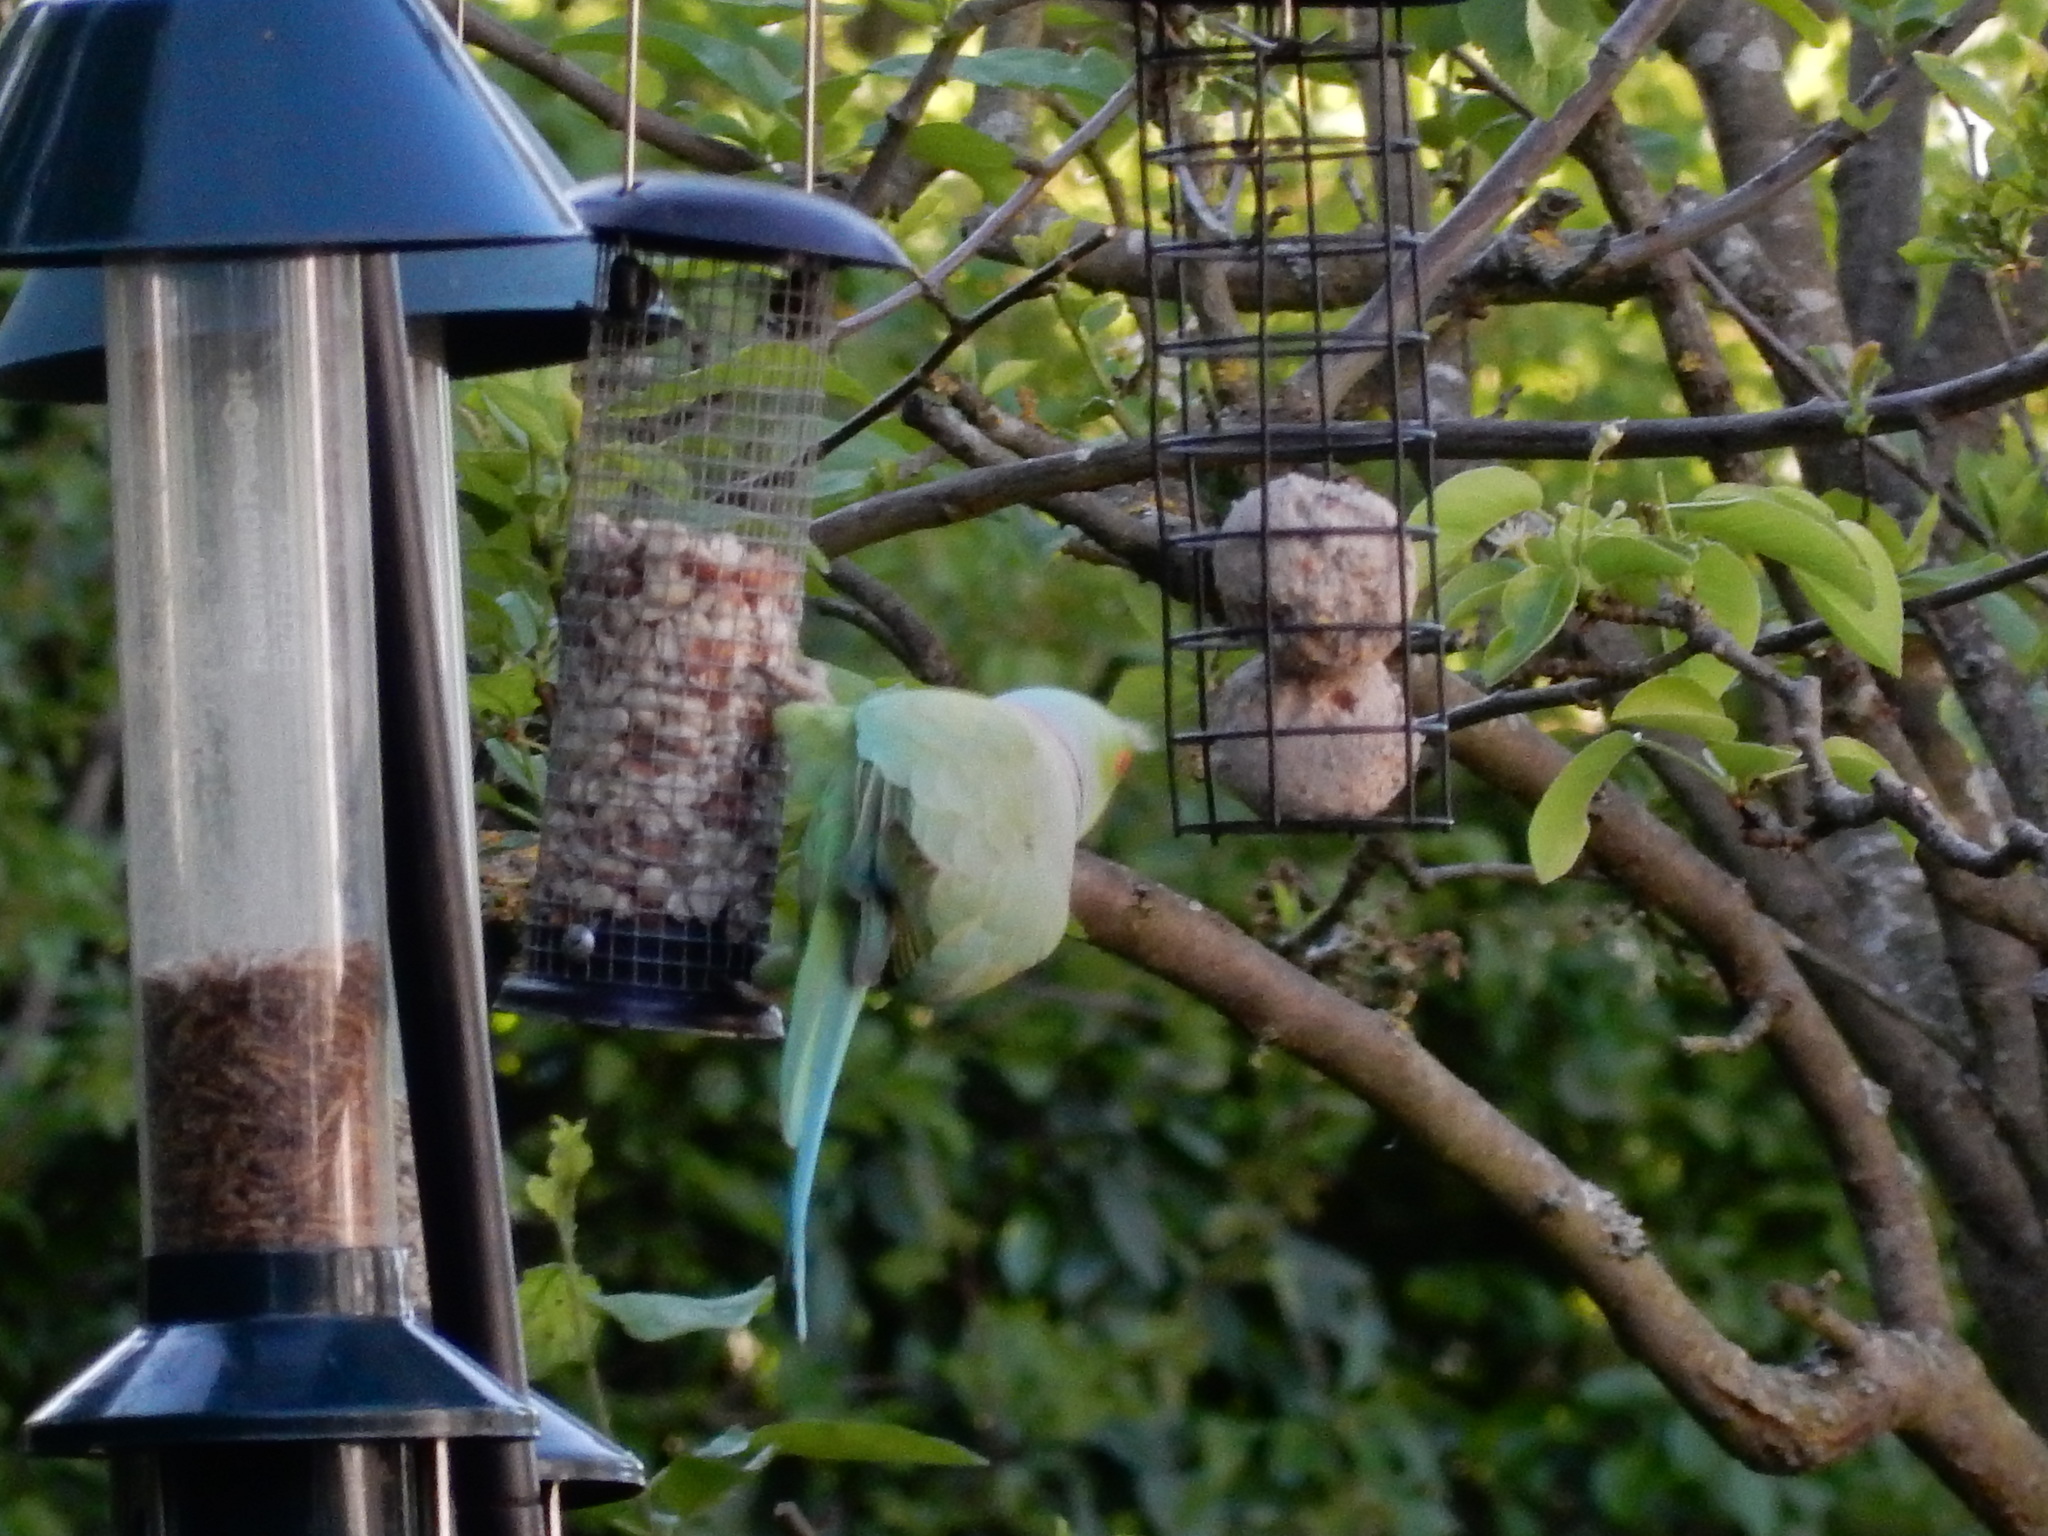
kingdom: Animalia
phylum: Chordata
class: Aves
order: Psittaciformes
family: Psittacidae
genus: Psittacula
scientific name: Psittacula krameri
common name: Rose-ringed parakeet
